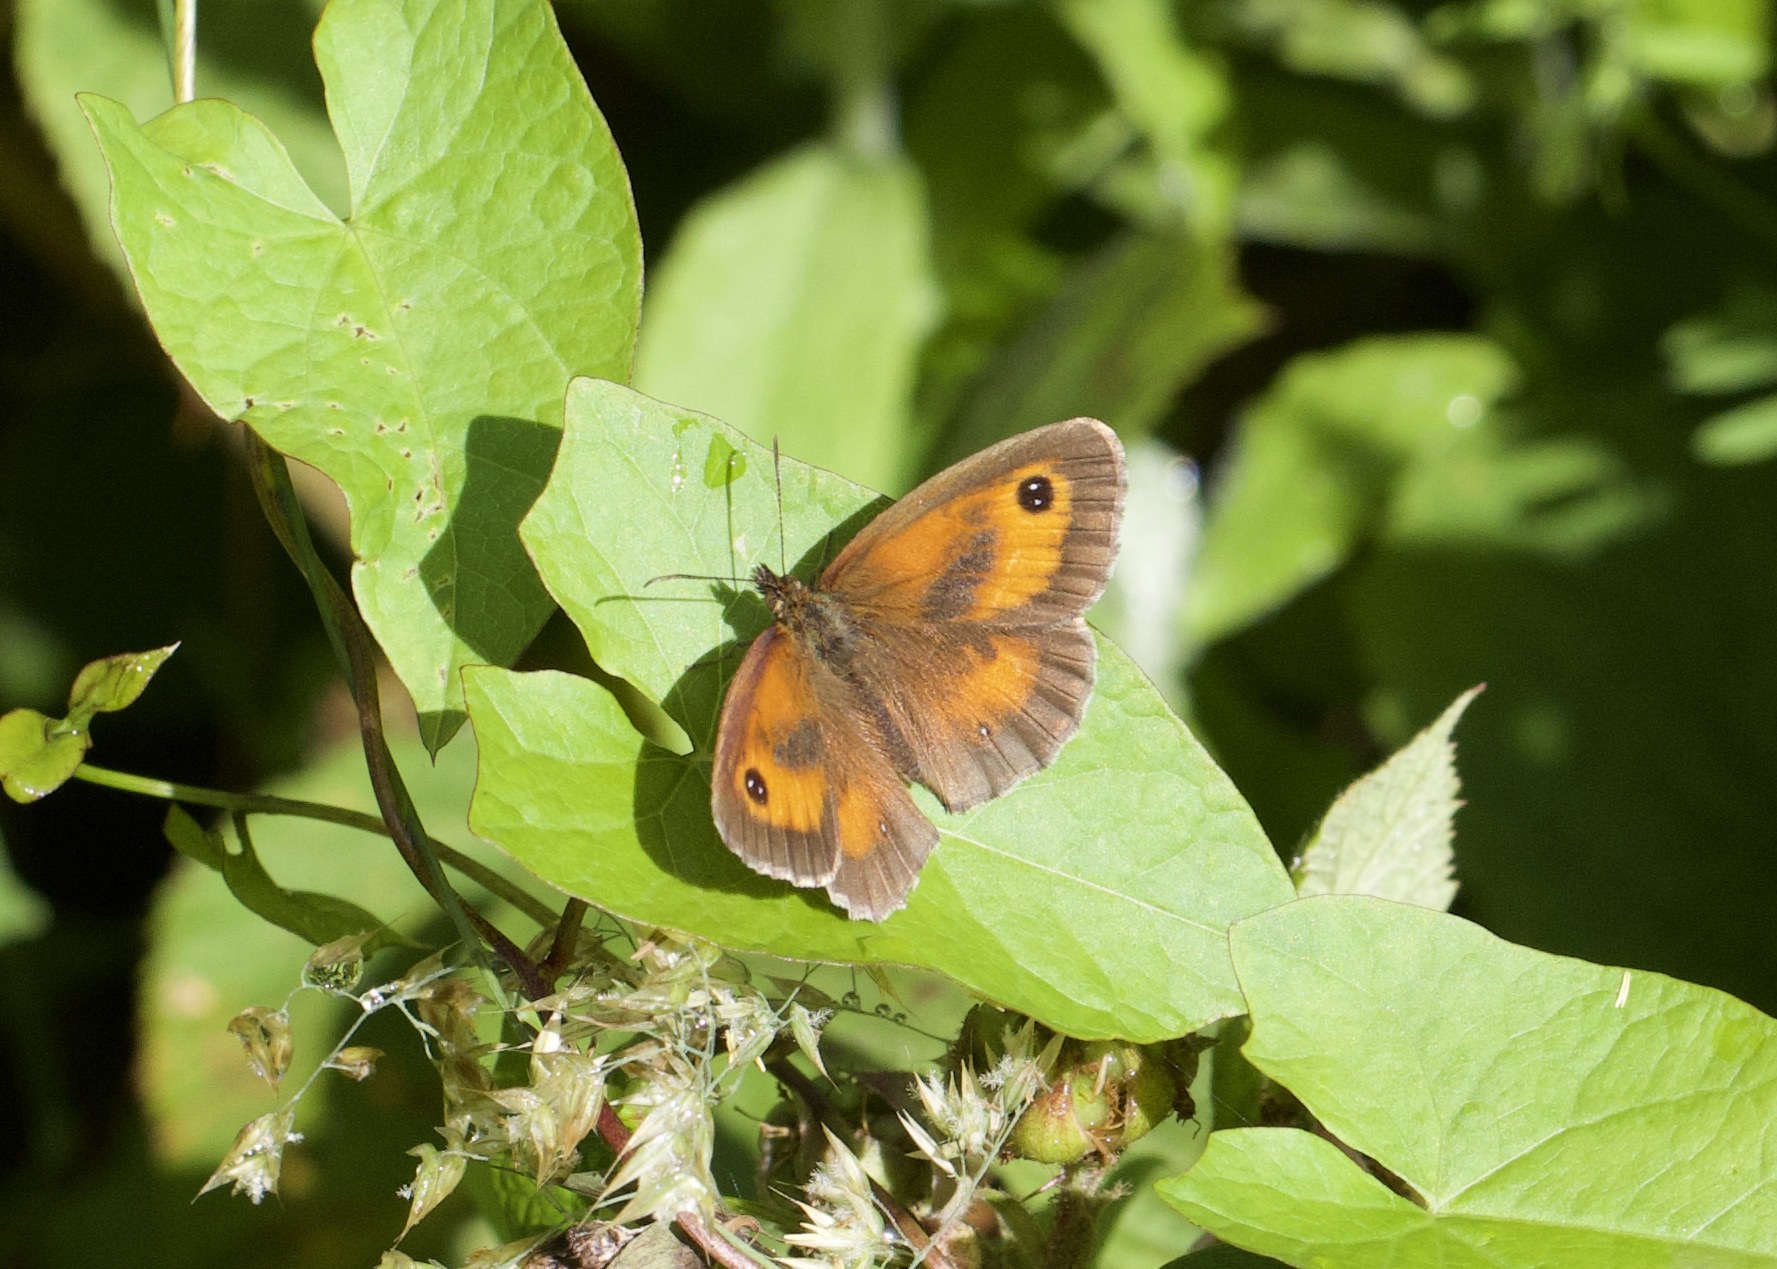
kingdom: Animalia
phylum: Arthropoda
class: Insecta
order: Lepidoptera
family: Nymphalidae
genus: Pyronia
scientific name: Pyronia tithonus
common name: Gatekeeper
